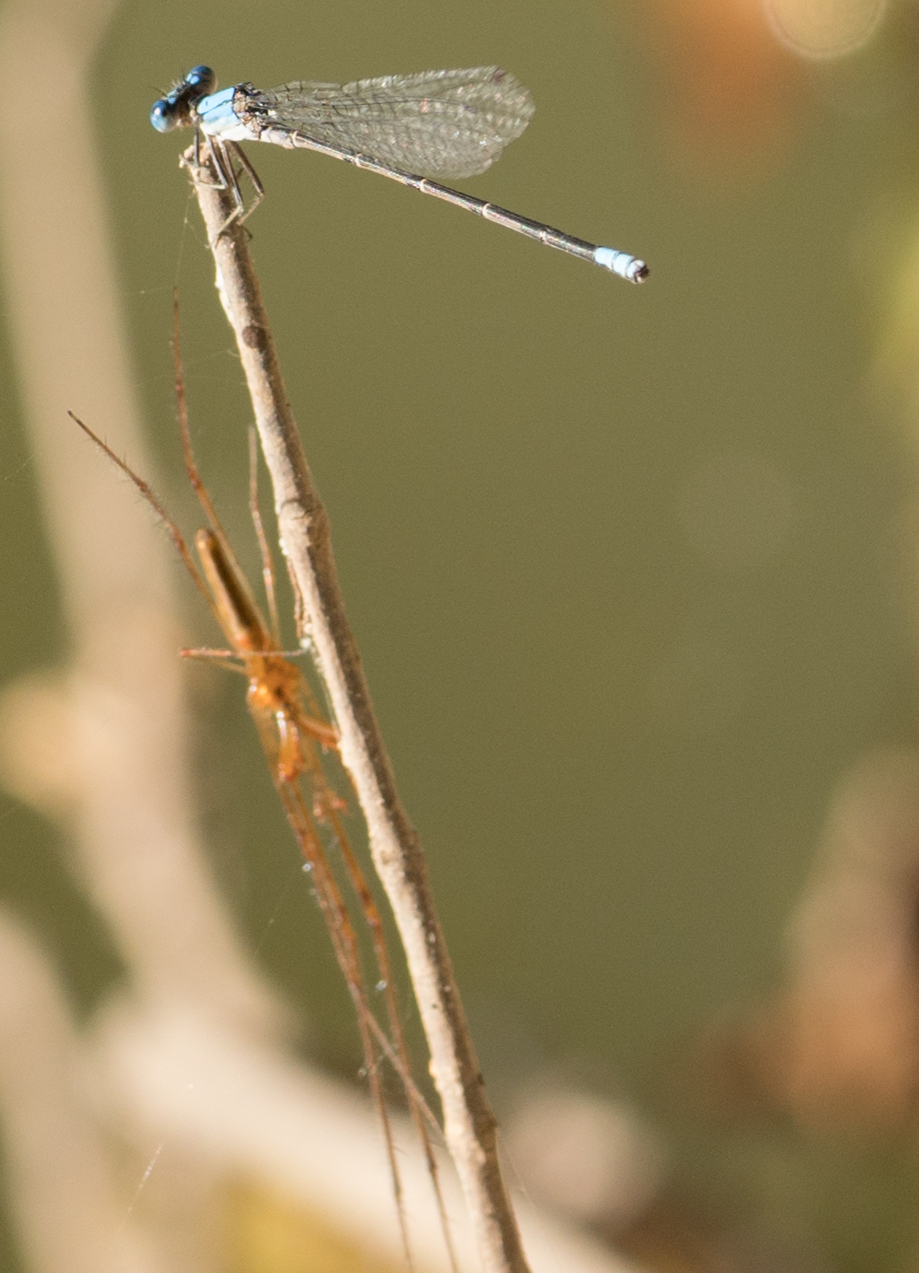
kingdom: Animalia
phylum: Arthropoda
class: Insecta
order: Odonata
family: Coenagrionidae
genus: Argia
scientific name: Argia apicalis
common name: Blue-fronted dancer
